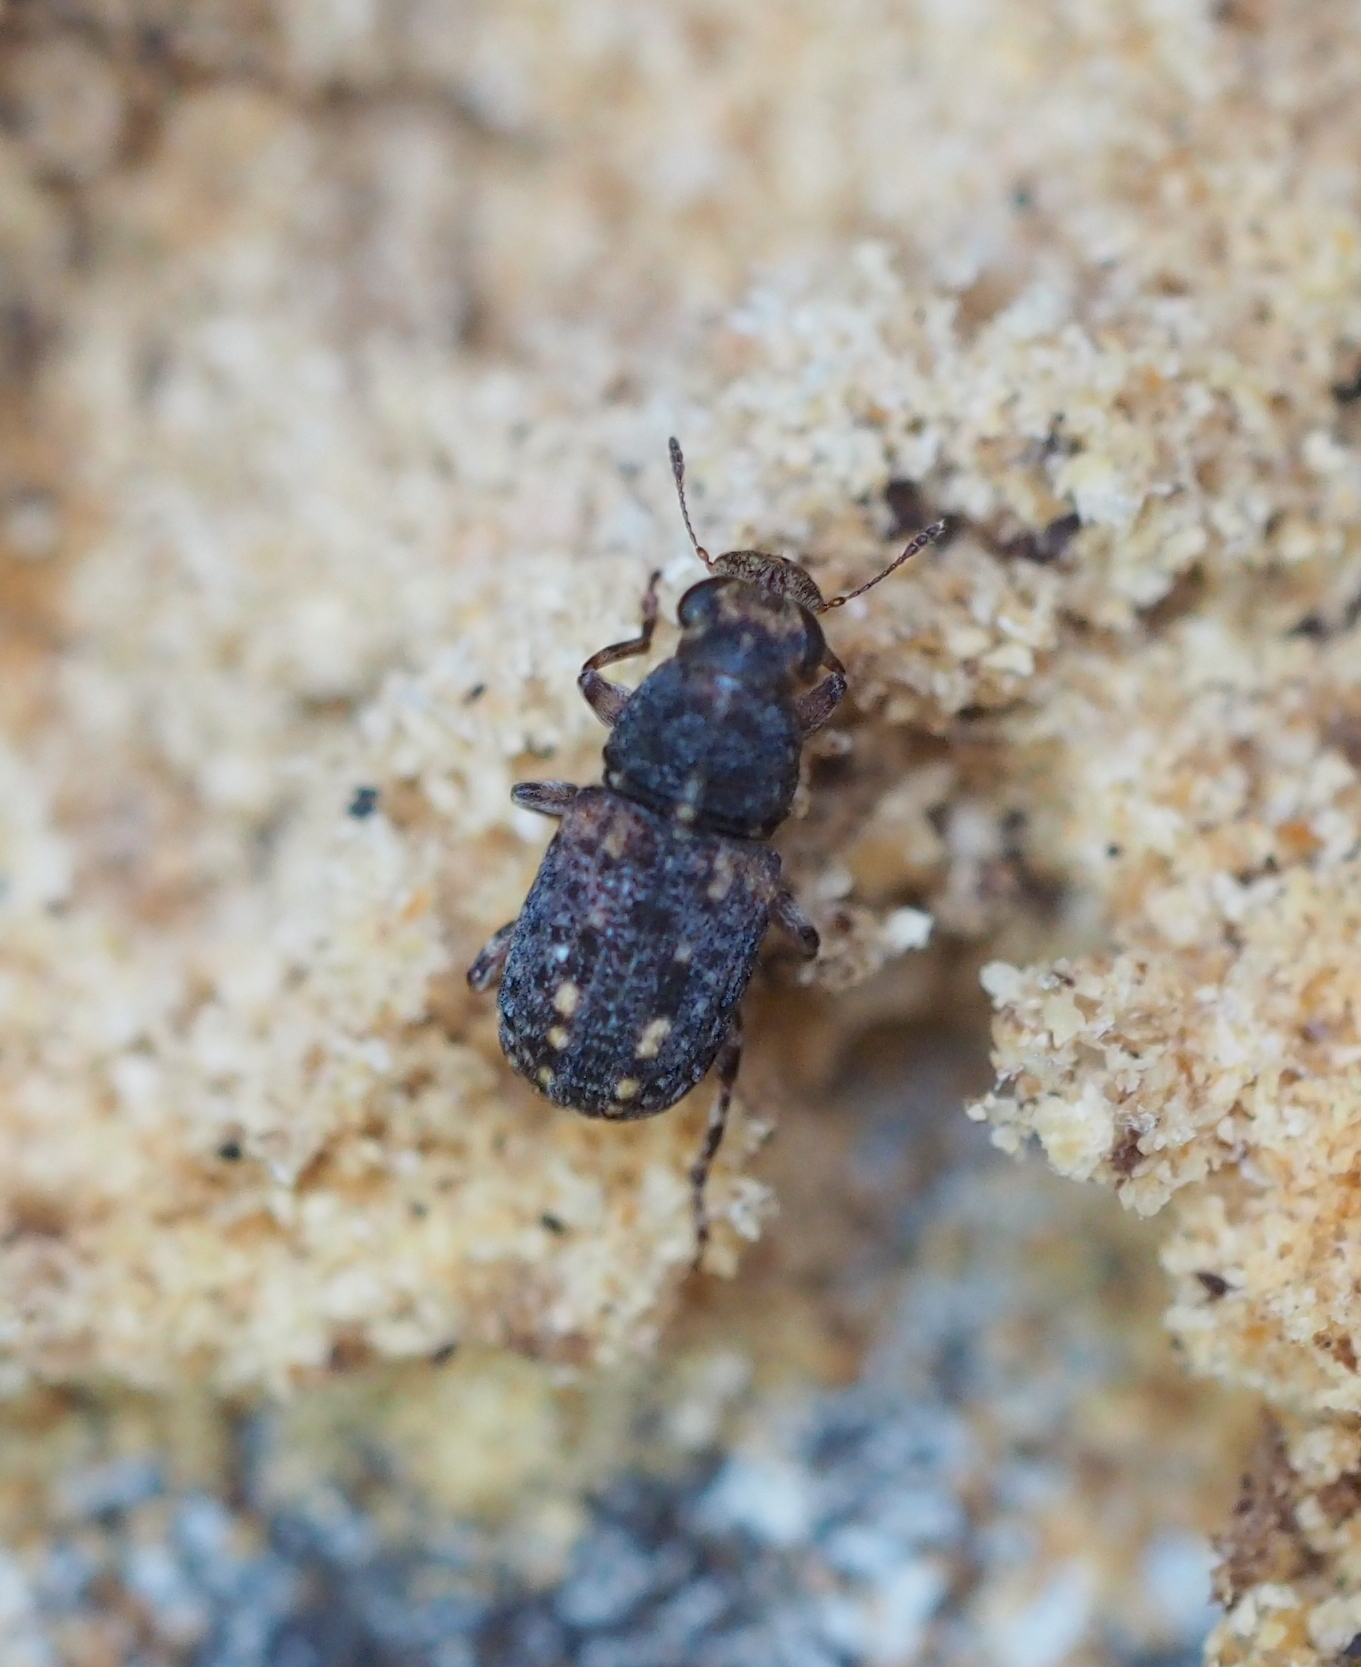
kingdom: Animalia
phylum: Arthropoda
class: Insecta
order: Coleoptera
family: Anthribidae
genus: Ulorhinus
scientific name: Ulorhinus bilineatus
